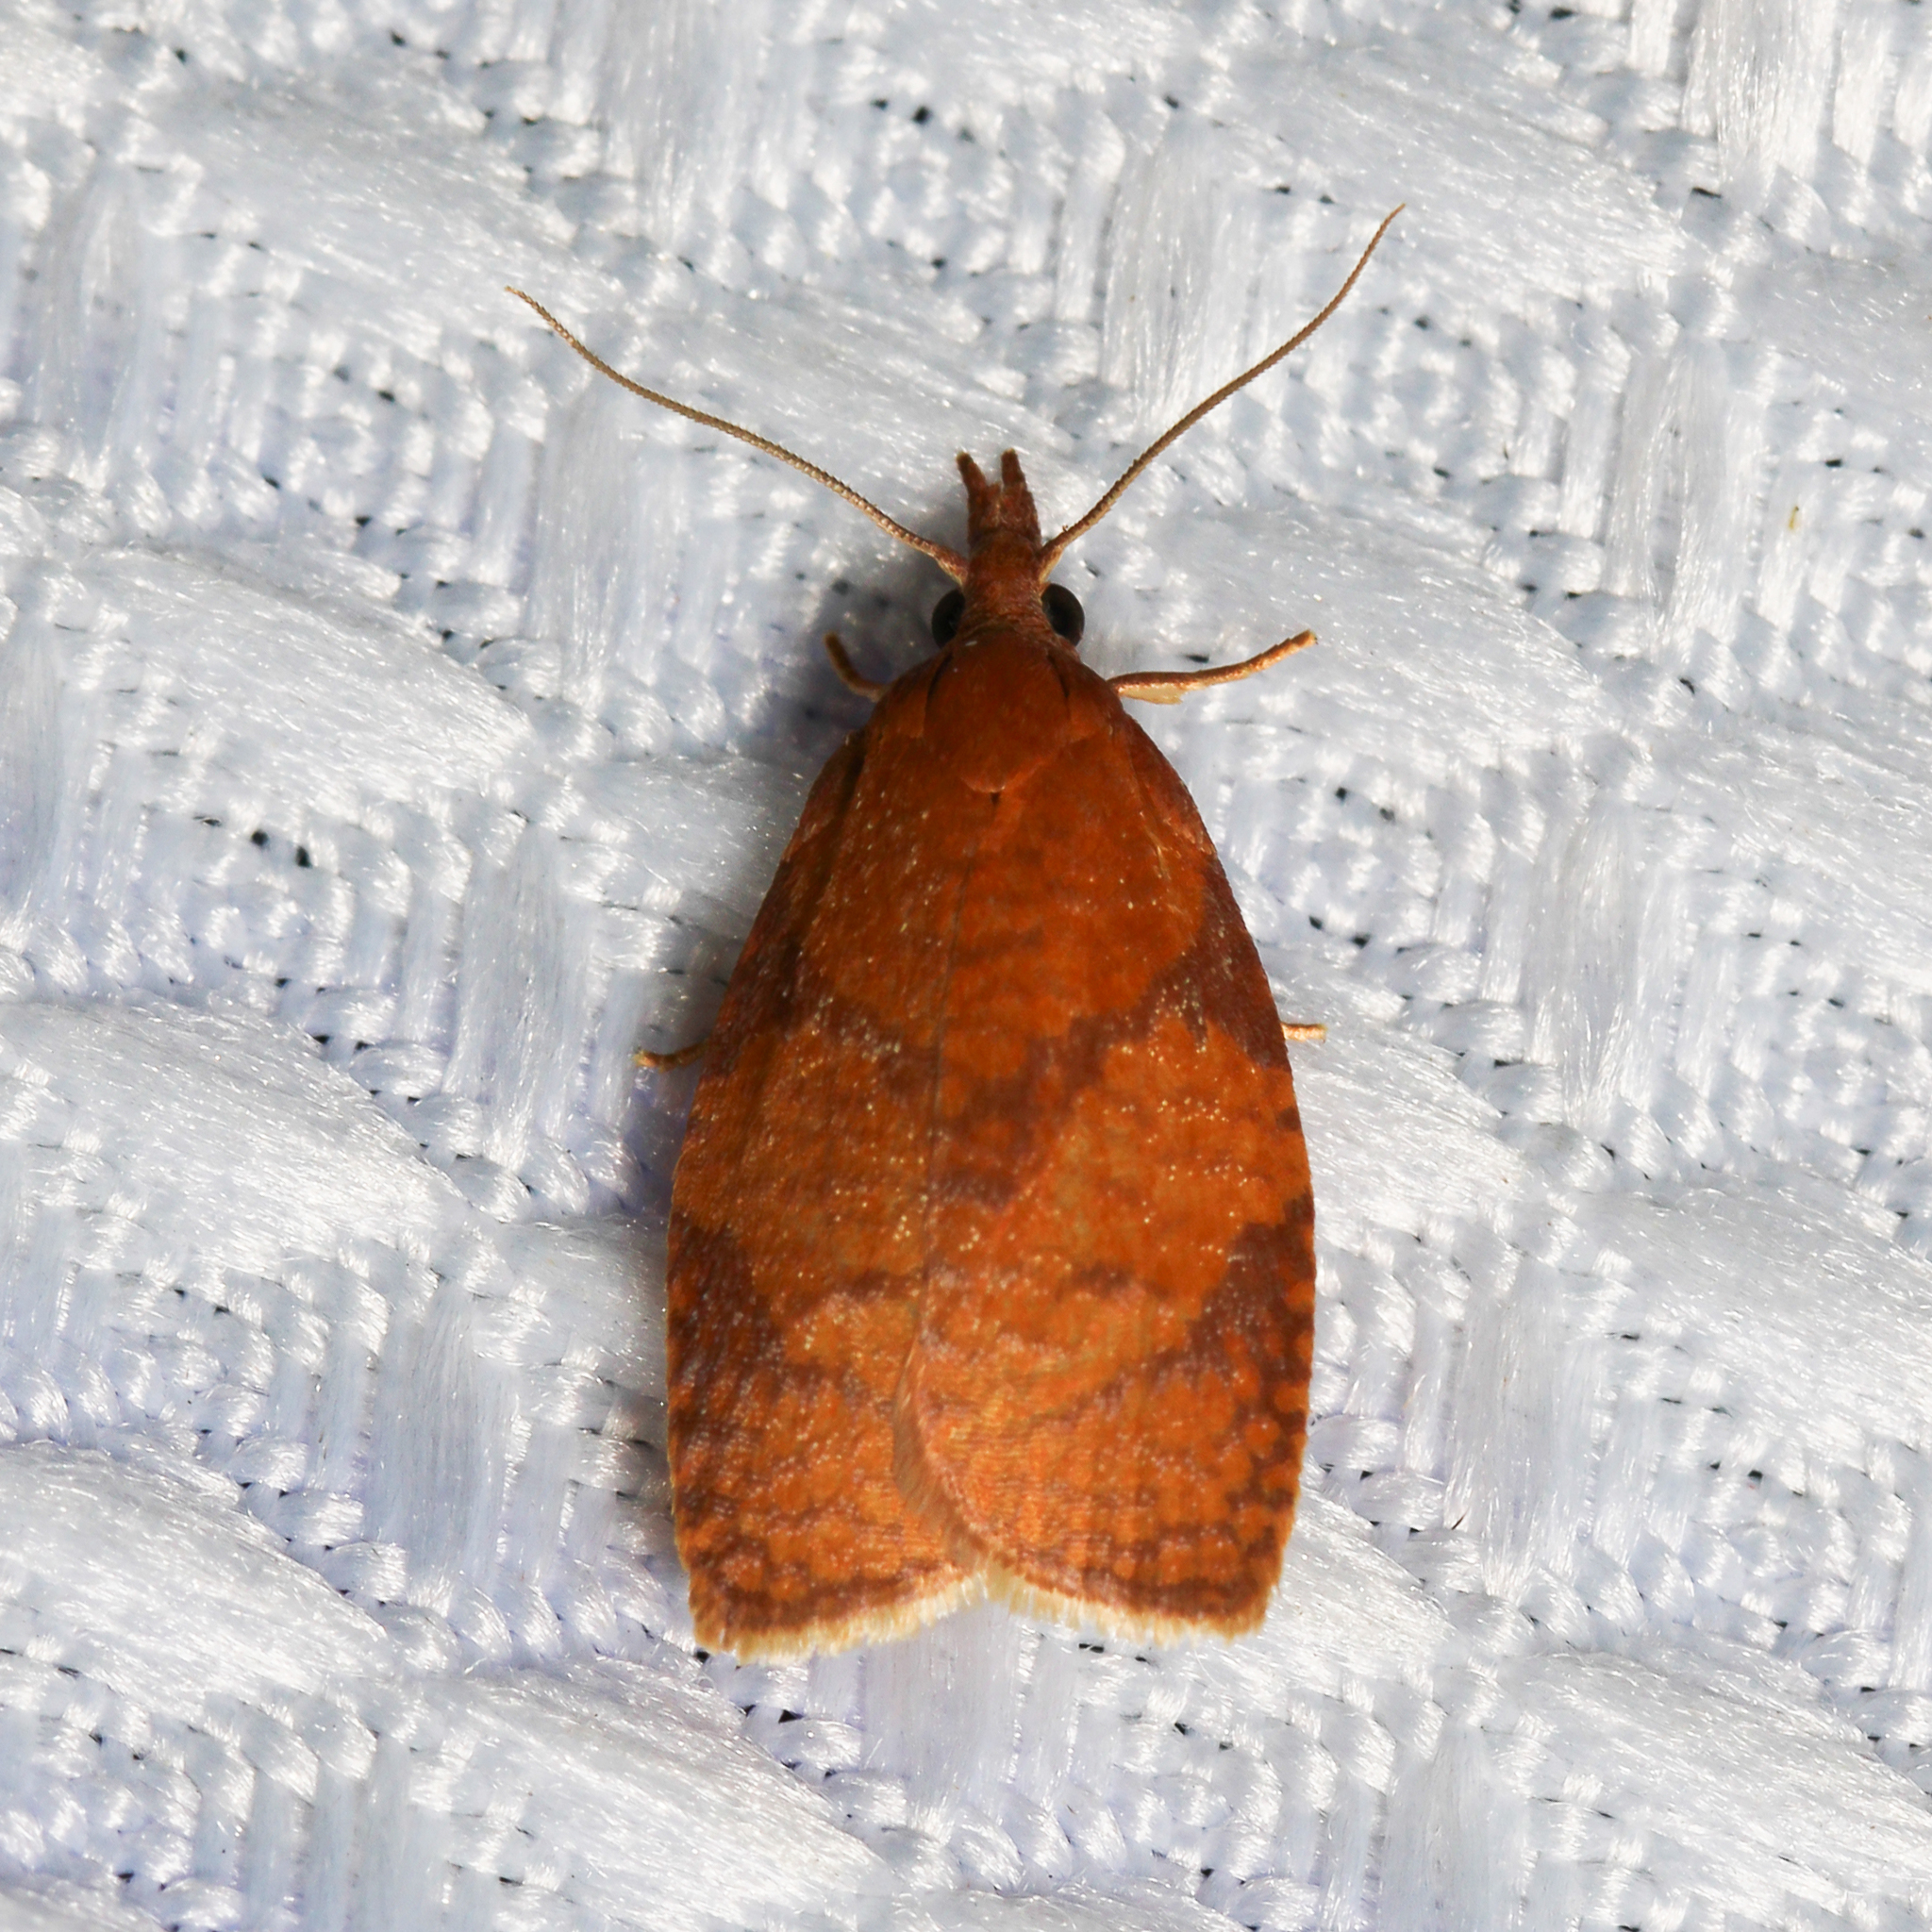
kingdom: Animalia
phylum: Arthropoda
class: Insecta
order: Lepidoptera
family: Tortricidae
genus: Cenopis
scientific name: Cenopis directana
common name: Chokecherry leafroller moth
